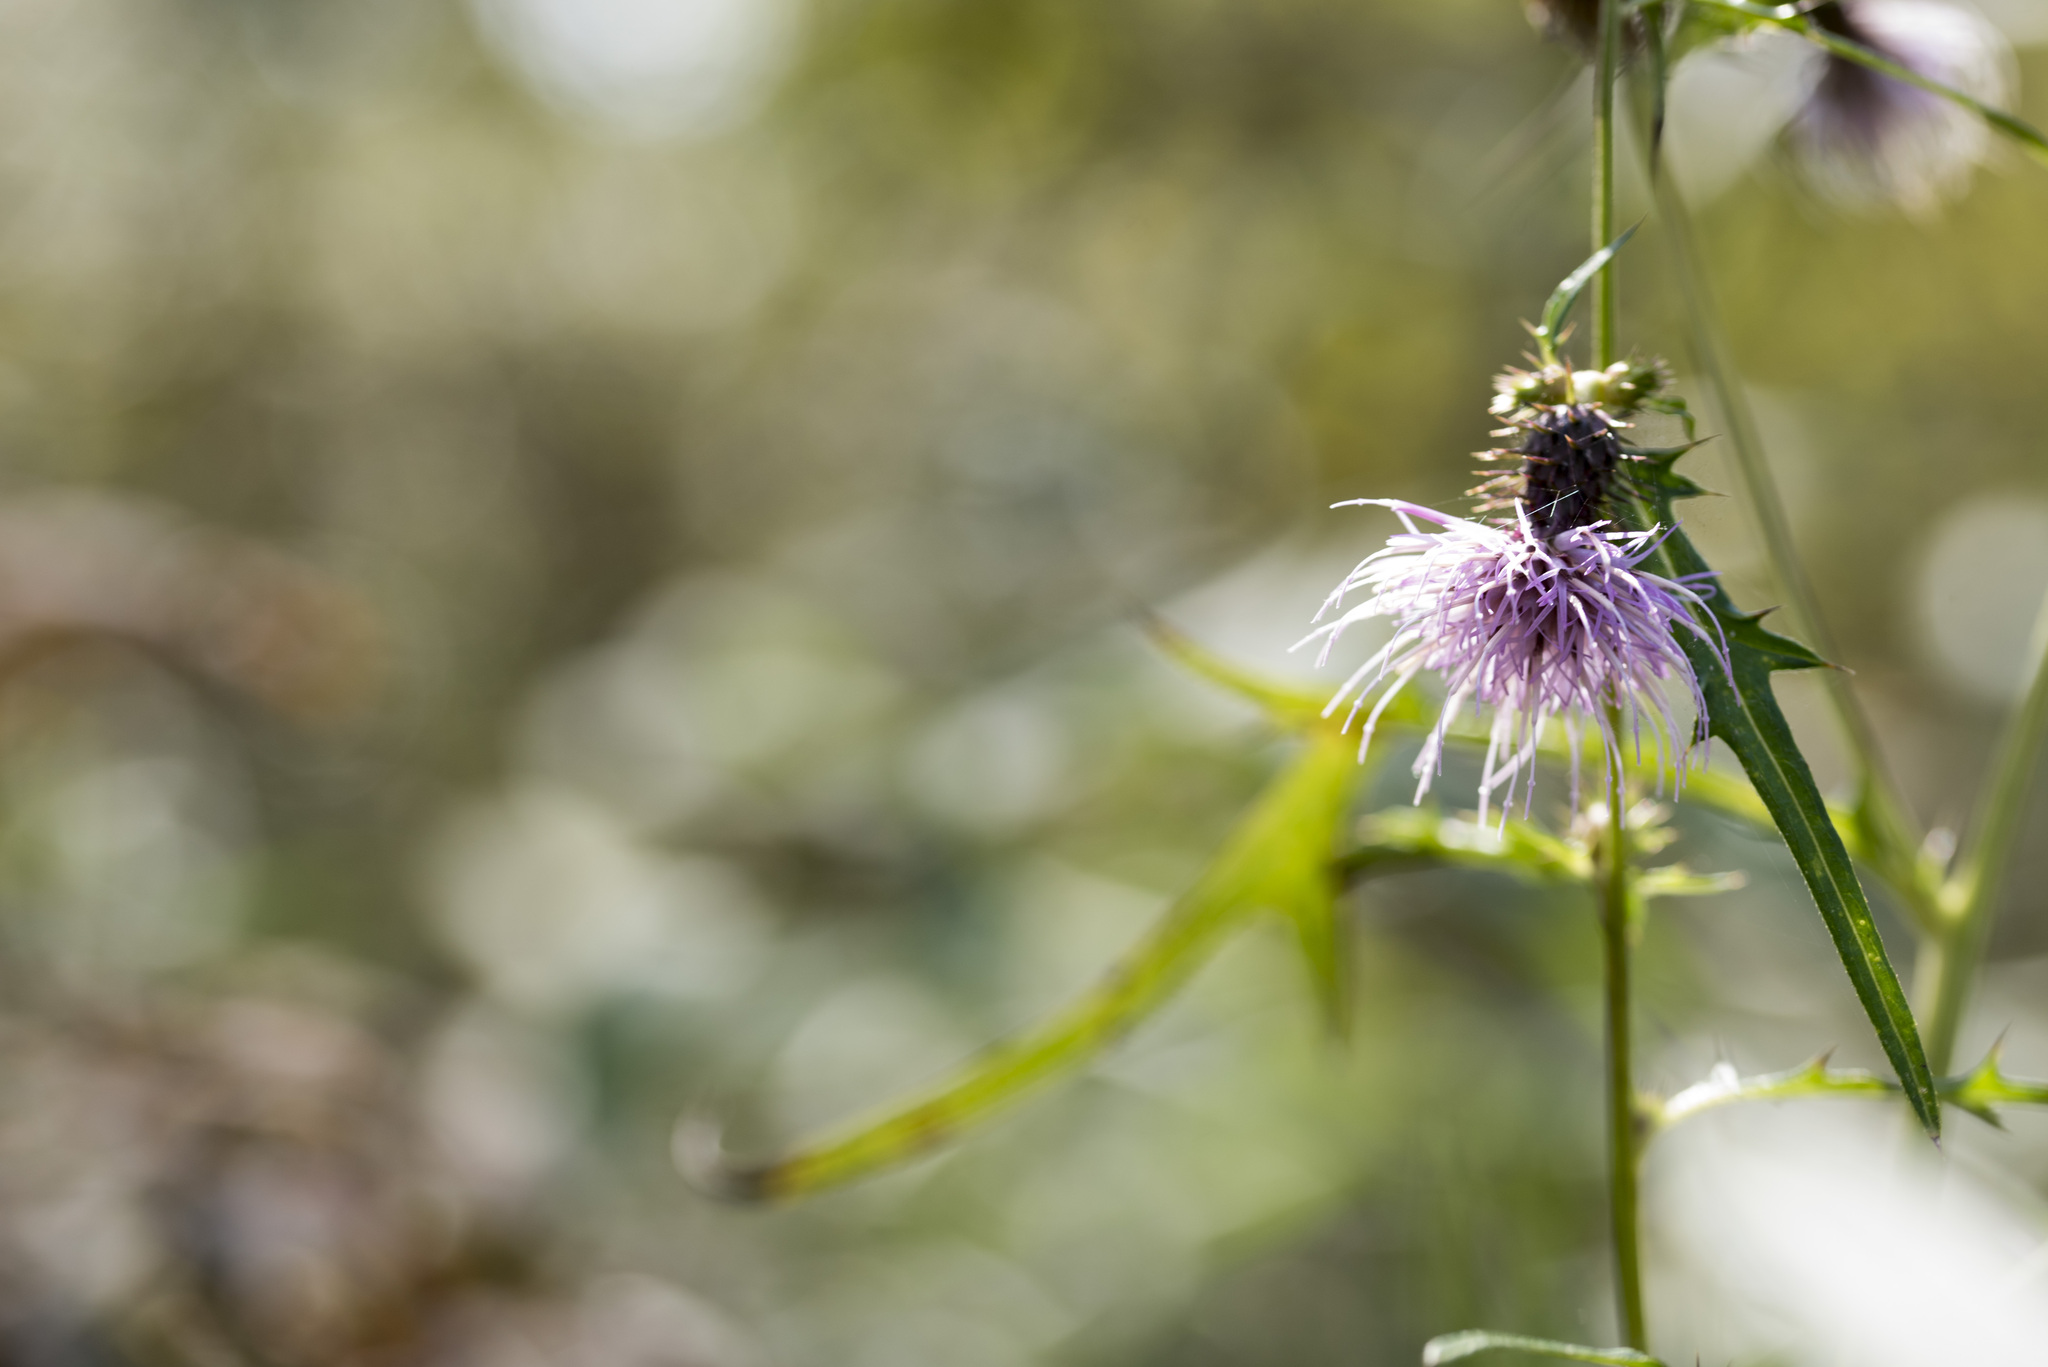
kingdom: Plantae
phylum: Tracheophyta
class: Magnoliopsida
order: Asterales
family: Asteraceae
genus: Cirsium
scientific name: Cirsium nipponicum
